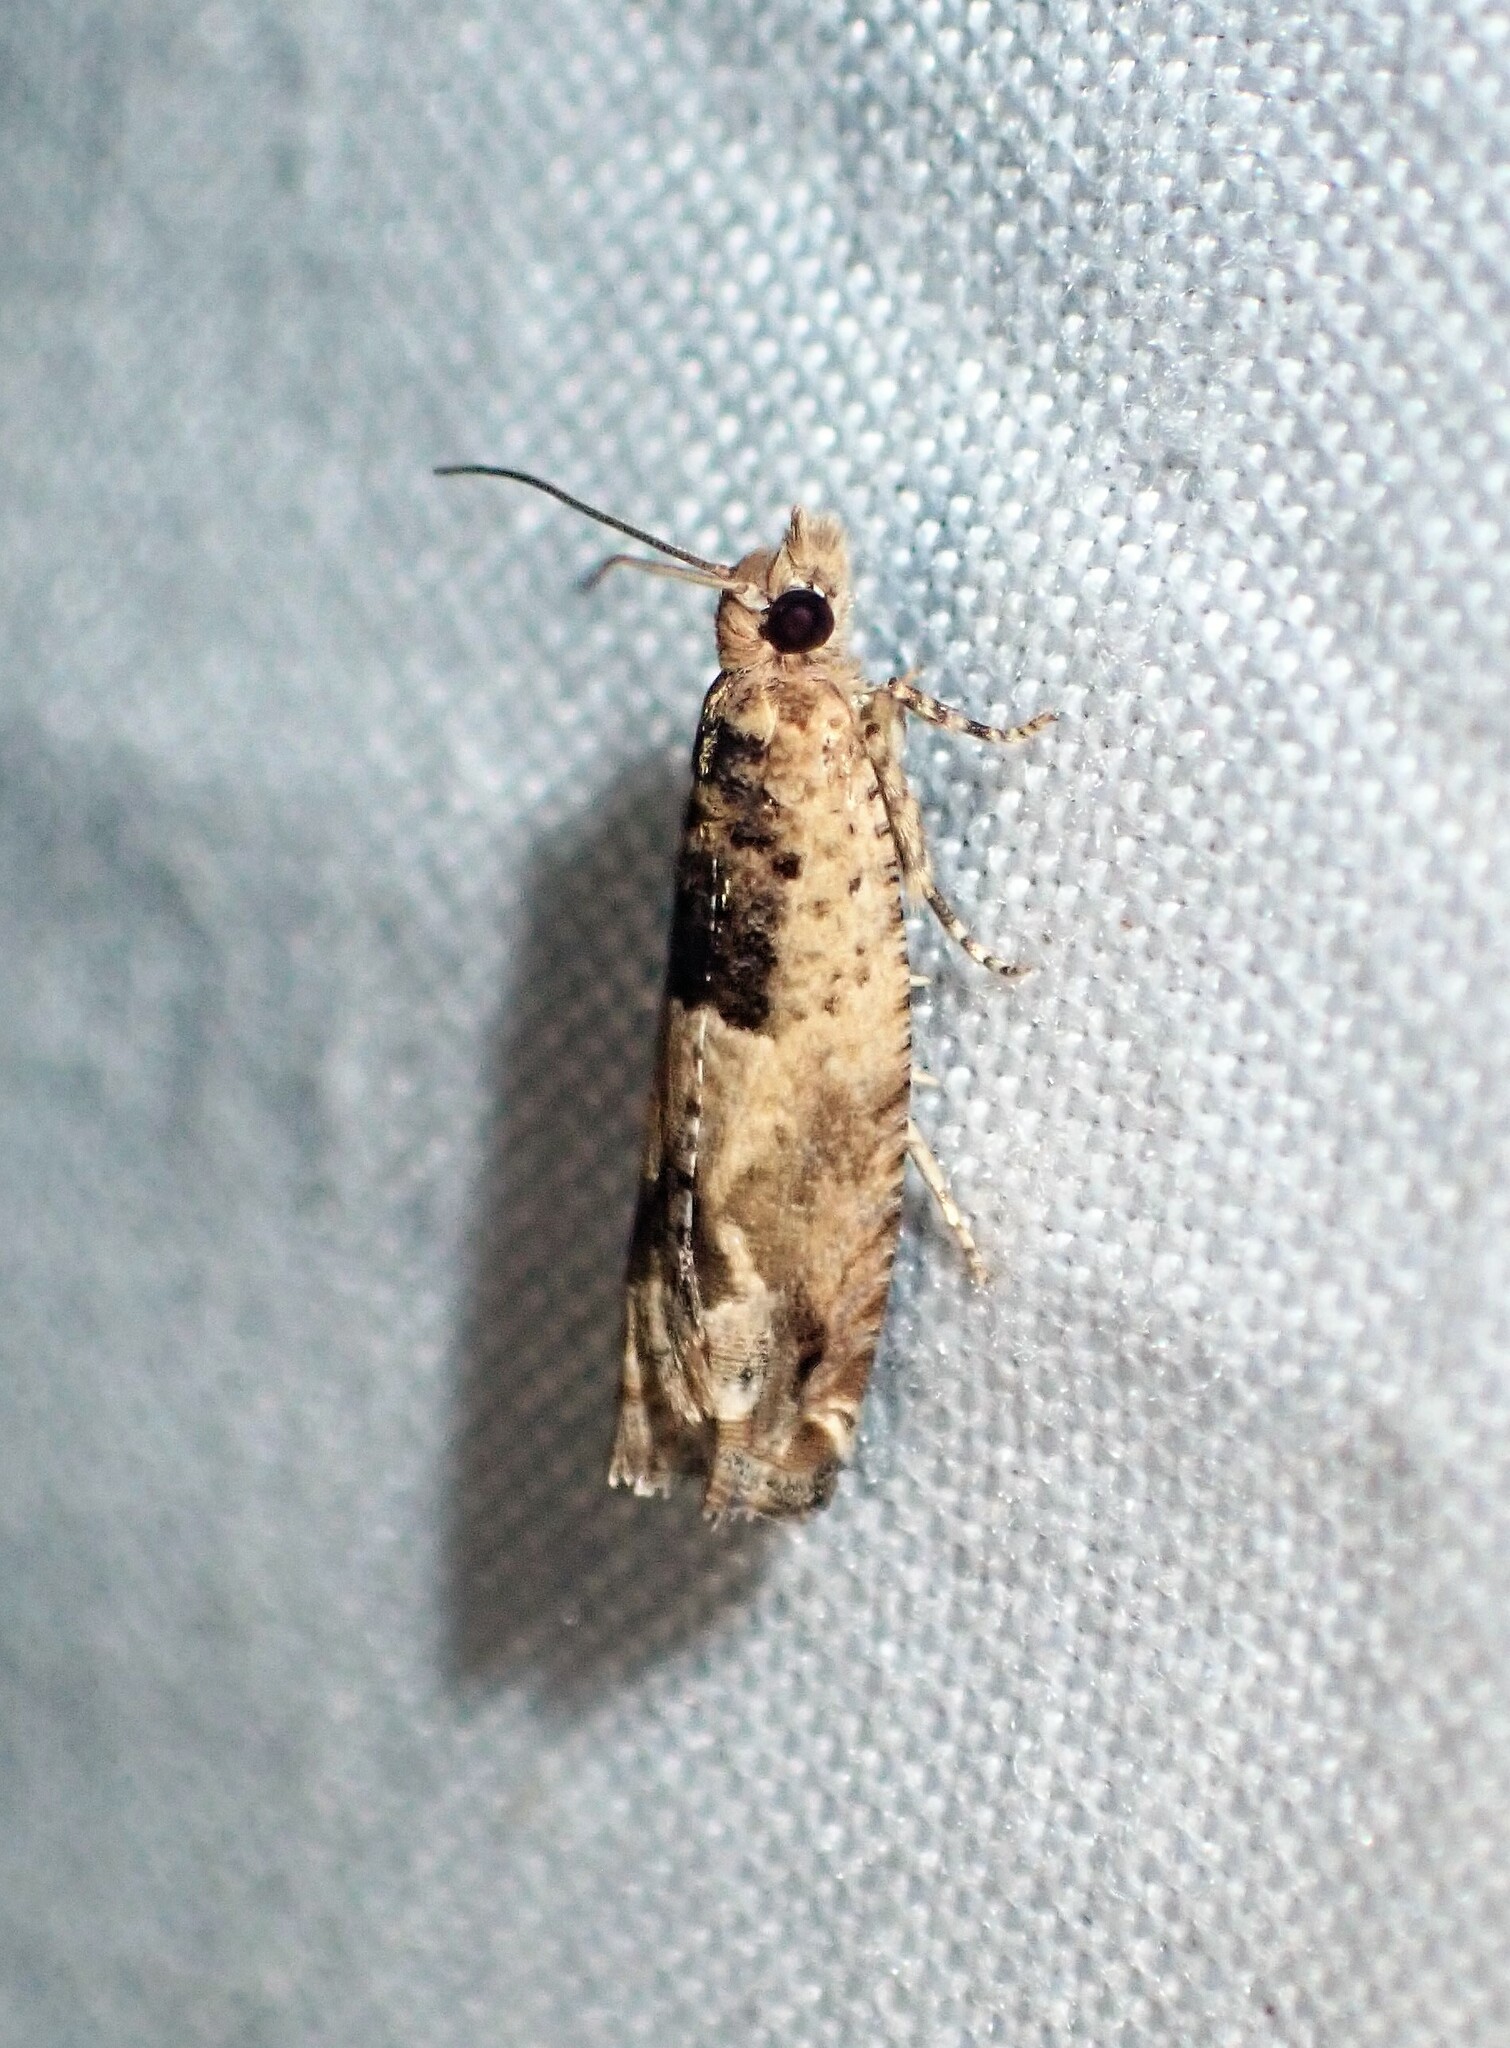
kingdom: Animalia
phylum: Arthropoda
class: Insecta
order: Lepidoptera
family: Tortricidae
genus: Crocidosema
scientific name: Crocidosema plebejana
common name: Southern bell
